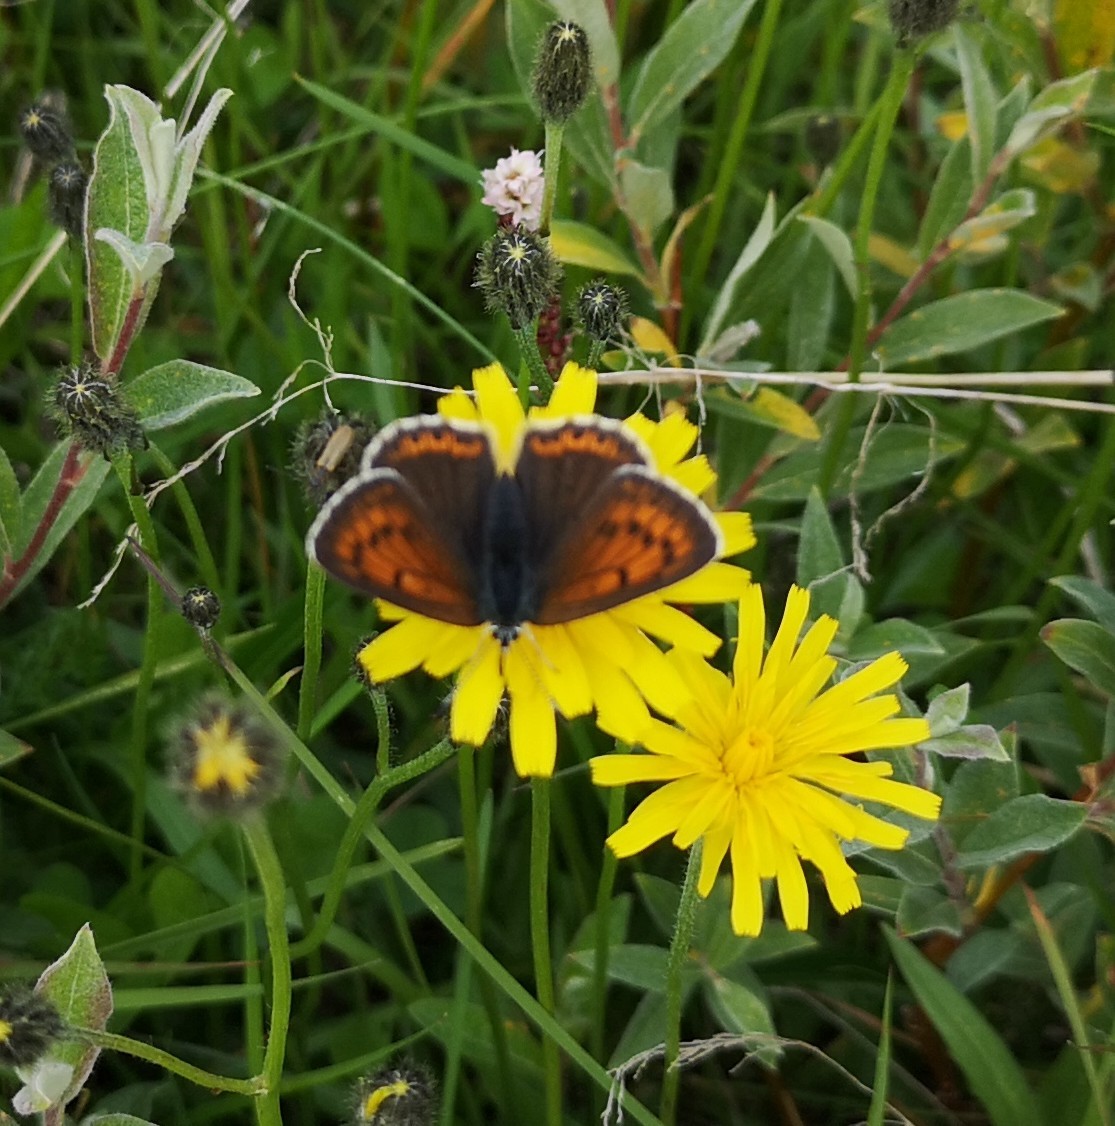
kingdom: Animalia
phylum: Arthropoda
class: Insecta
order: Lepidoptera
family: Lycaenidae
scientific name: Lycaenidae
